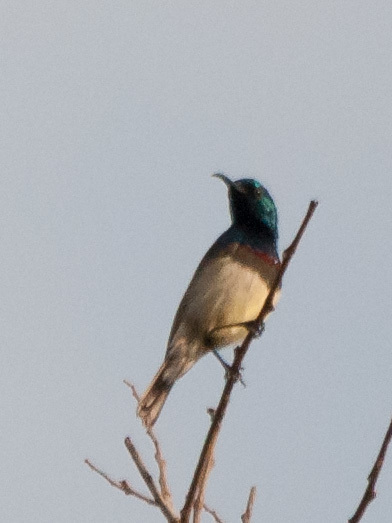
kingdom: Animalia
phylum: Chordata
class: Aves
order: Passeriformes
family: Nectariniidae
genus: Cinnyris
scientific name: Cinnyris sovimanga
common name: Souimanga sunbird
